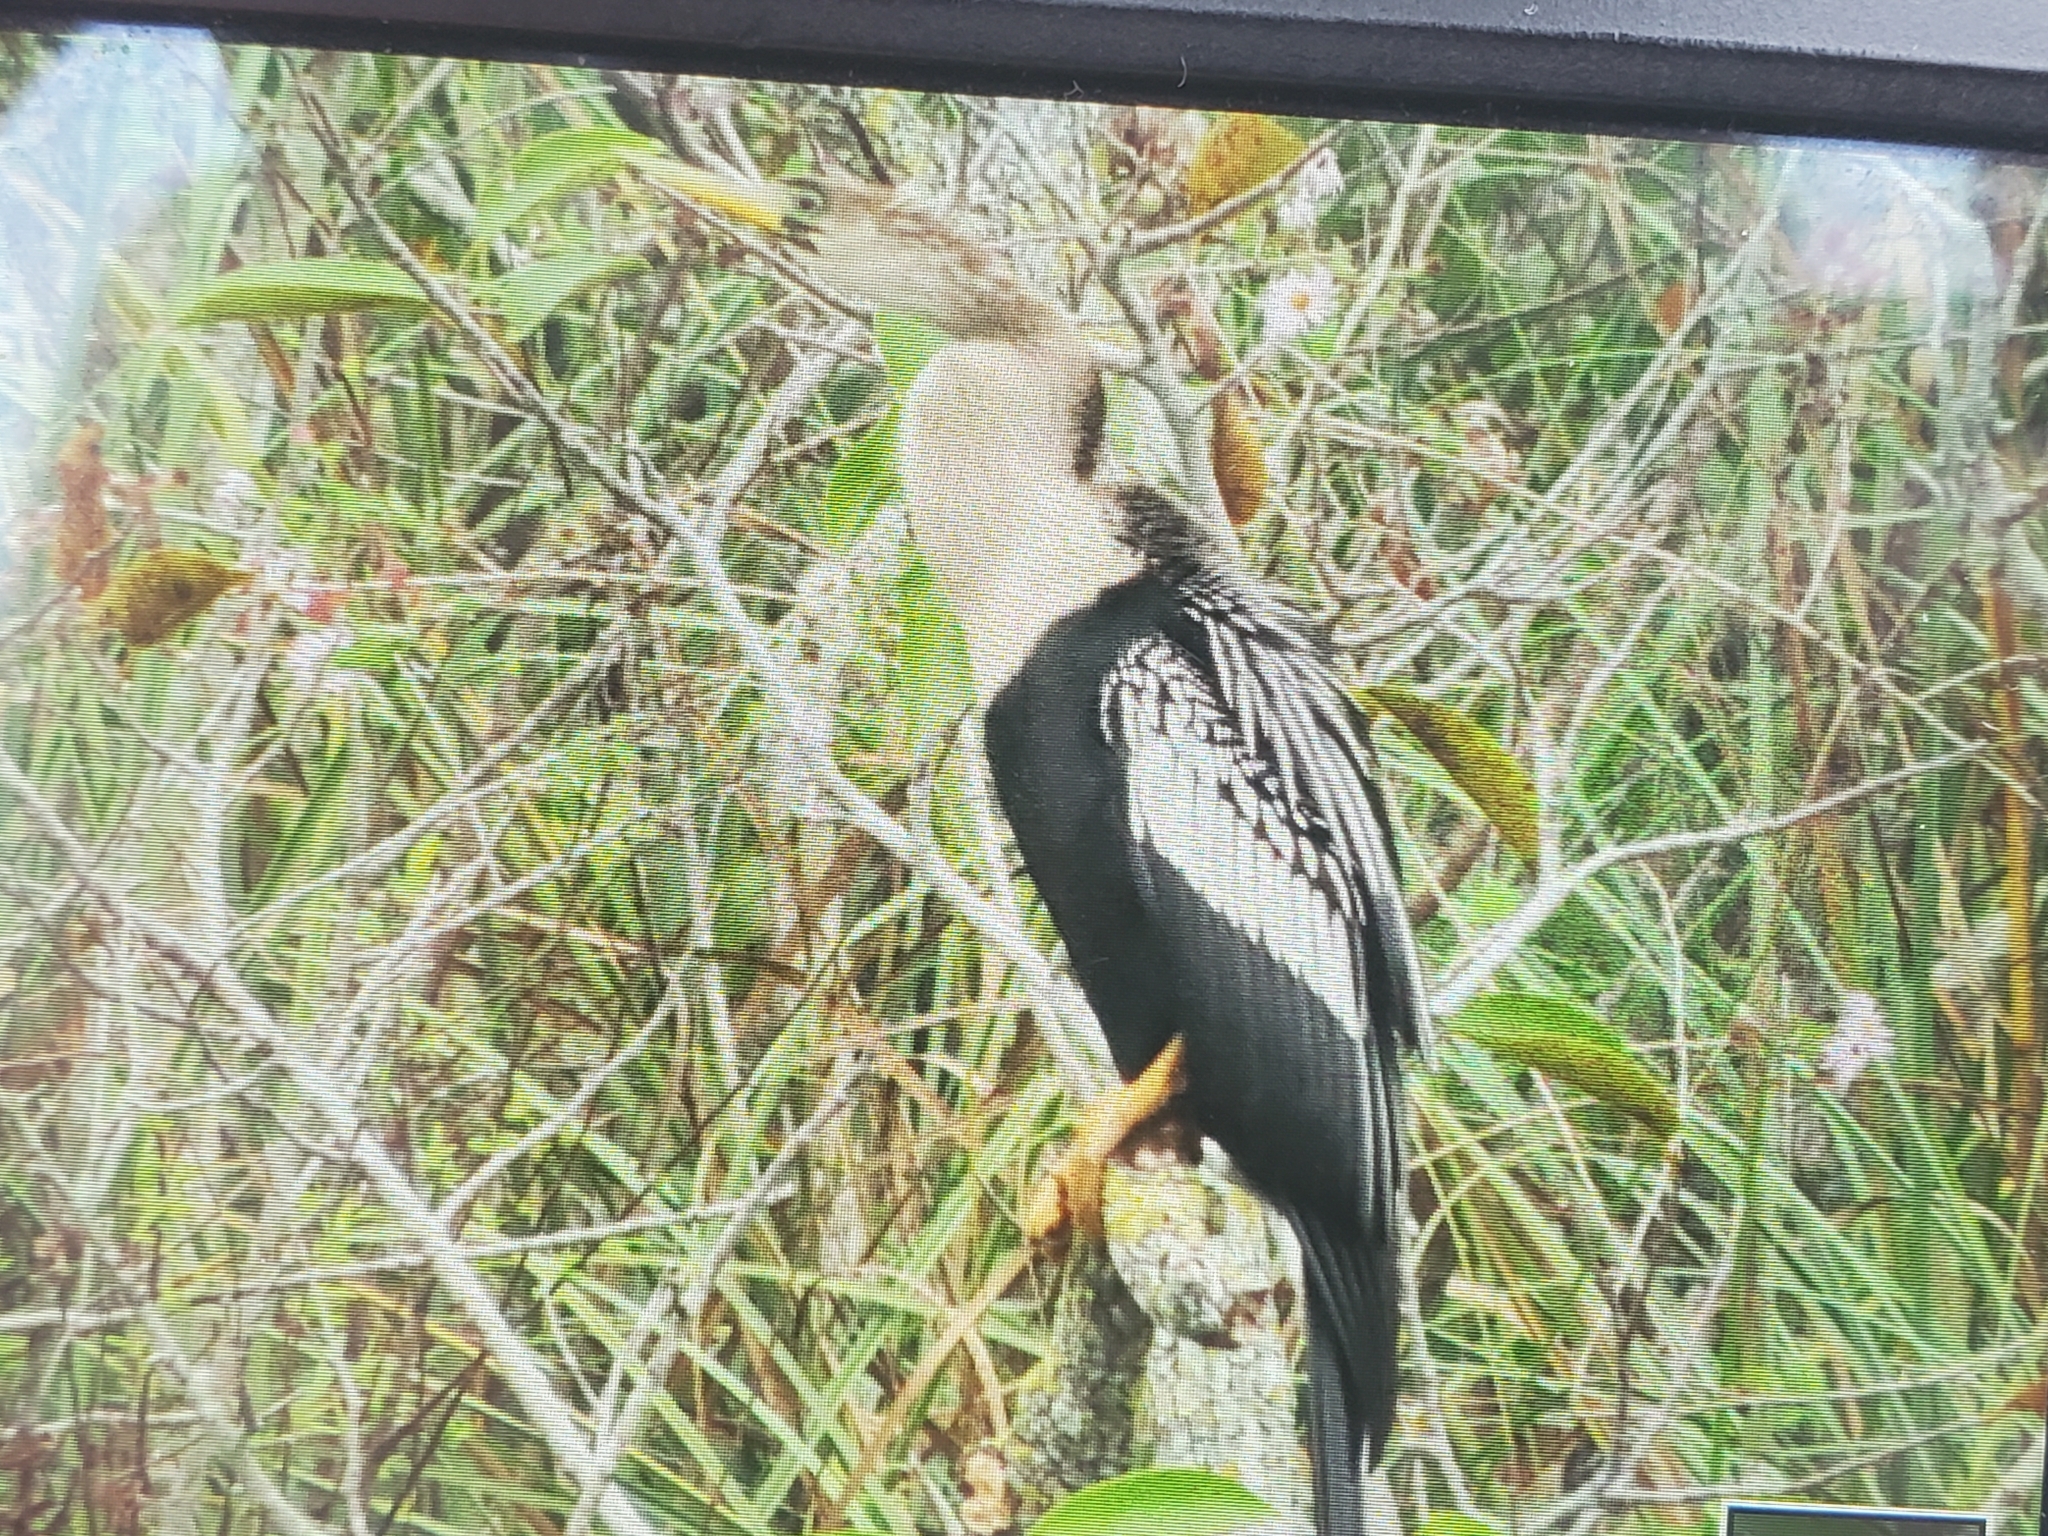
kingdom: Animalia
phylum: Chordata
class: Aves
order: Suliformes
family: Anhingidae
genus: Anhinga
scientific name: Anhinga anhinga
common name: Anhinga
